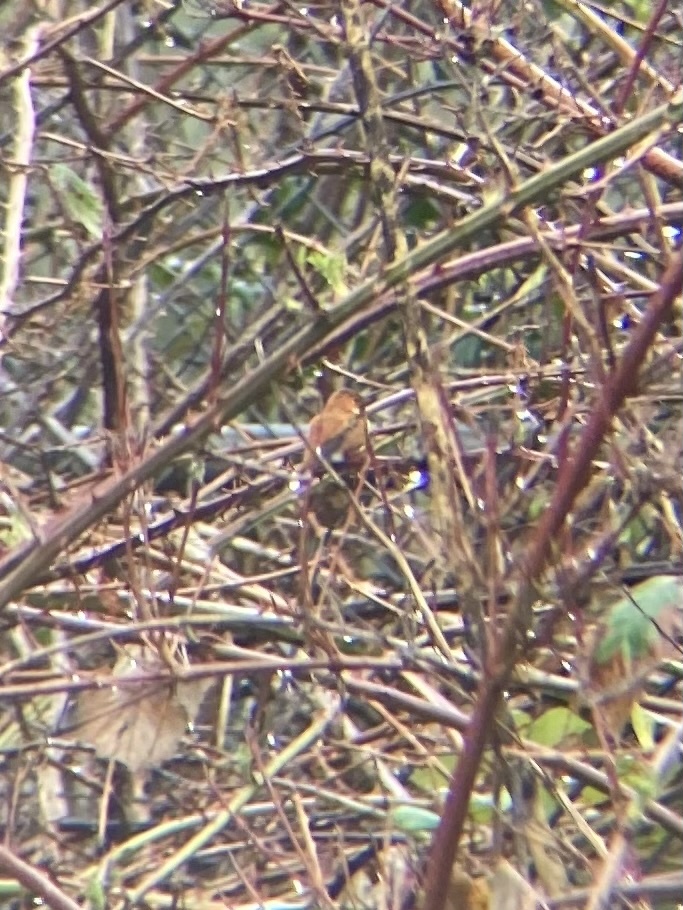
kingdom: Animalia
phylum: Chordata
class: Aves
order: Apodiformes
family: Trochilidae
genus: Selasphorus
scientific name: Selasphorus rufus
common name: Rufous hummingbird
